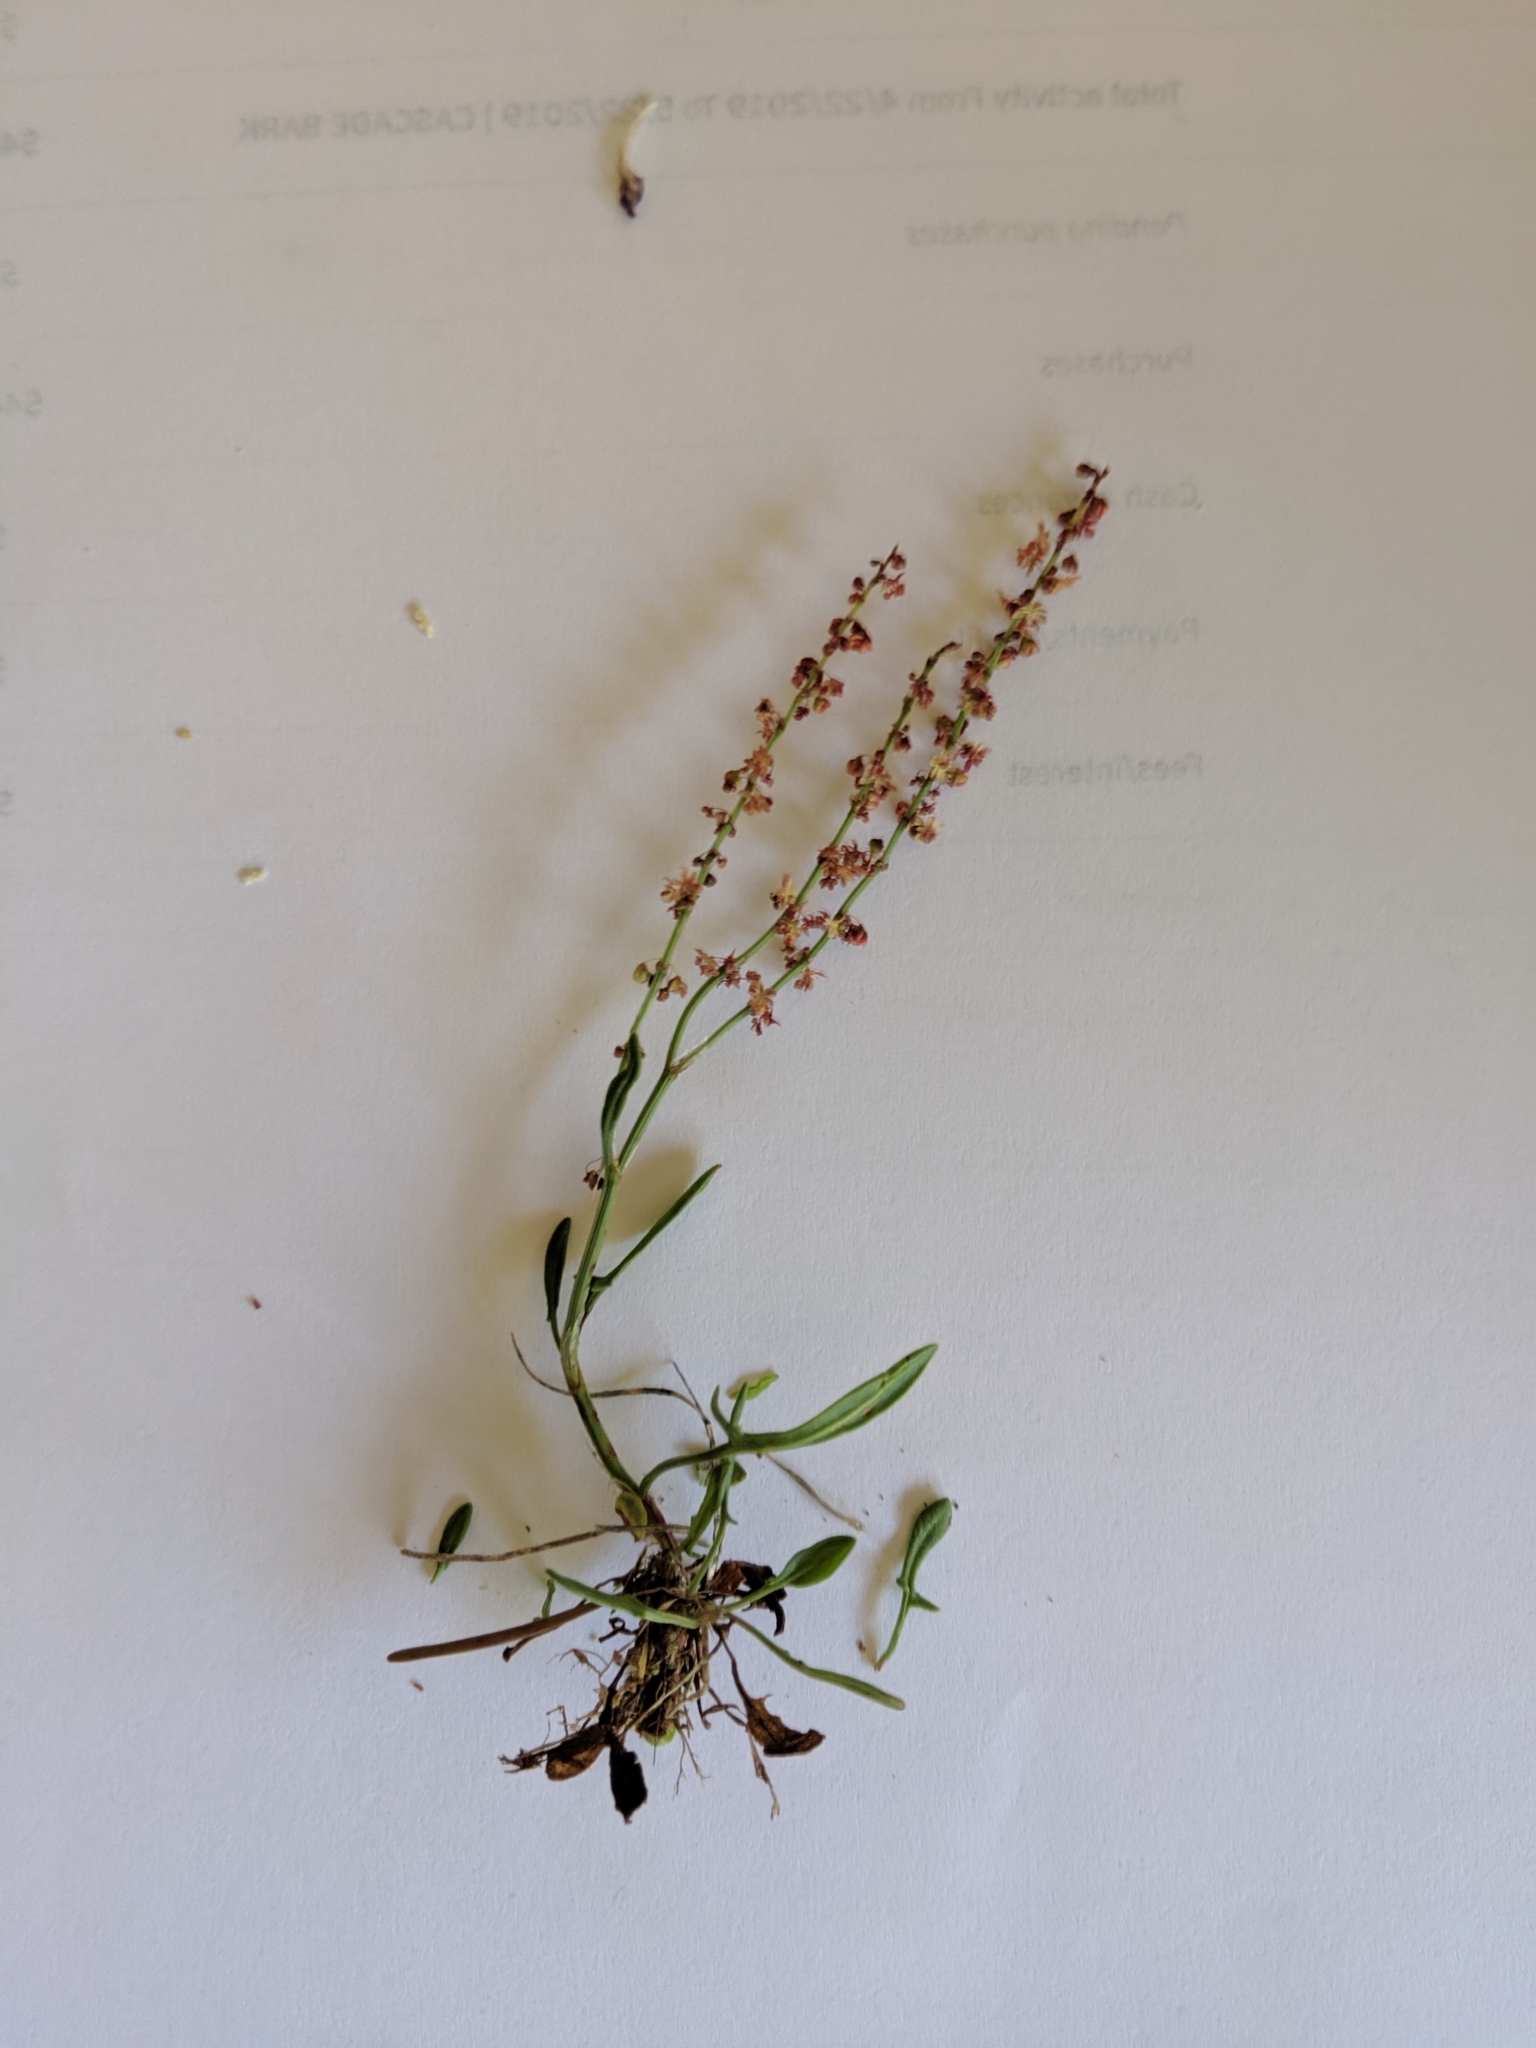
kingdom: Plantae
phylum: Tracheophyta
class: Magnoliopsida
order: Caryophyllales
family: Polygonaceae
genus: Rumex
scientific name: Rumex acetosella
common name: Common sheep sorrel
